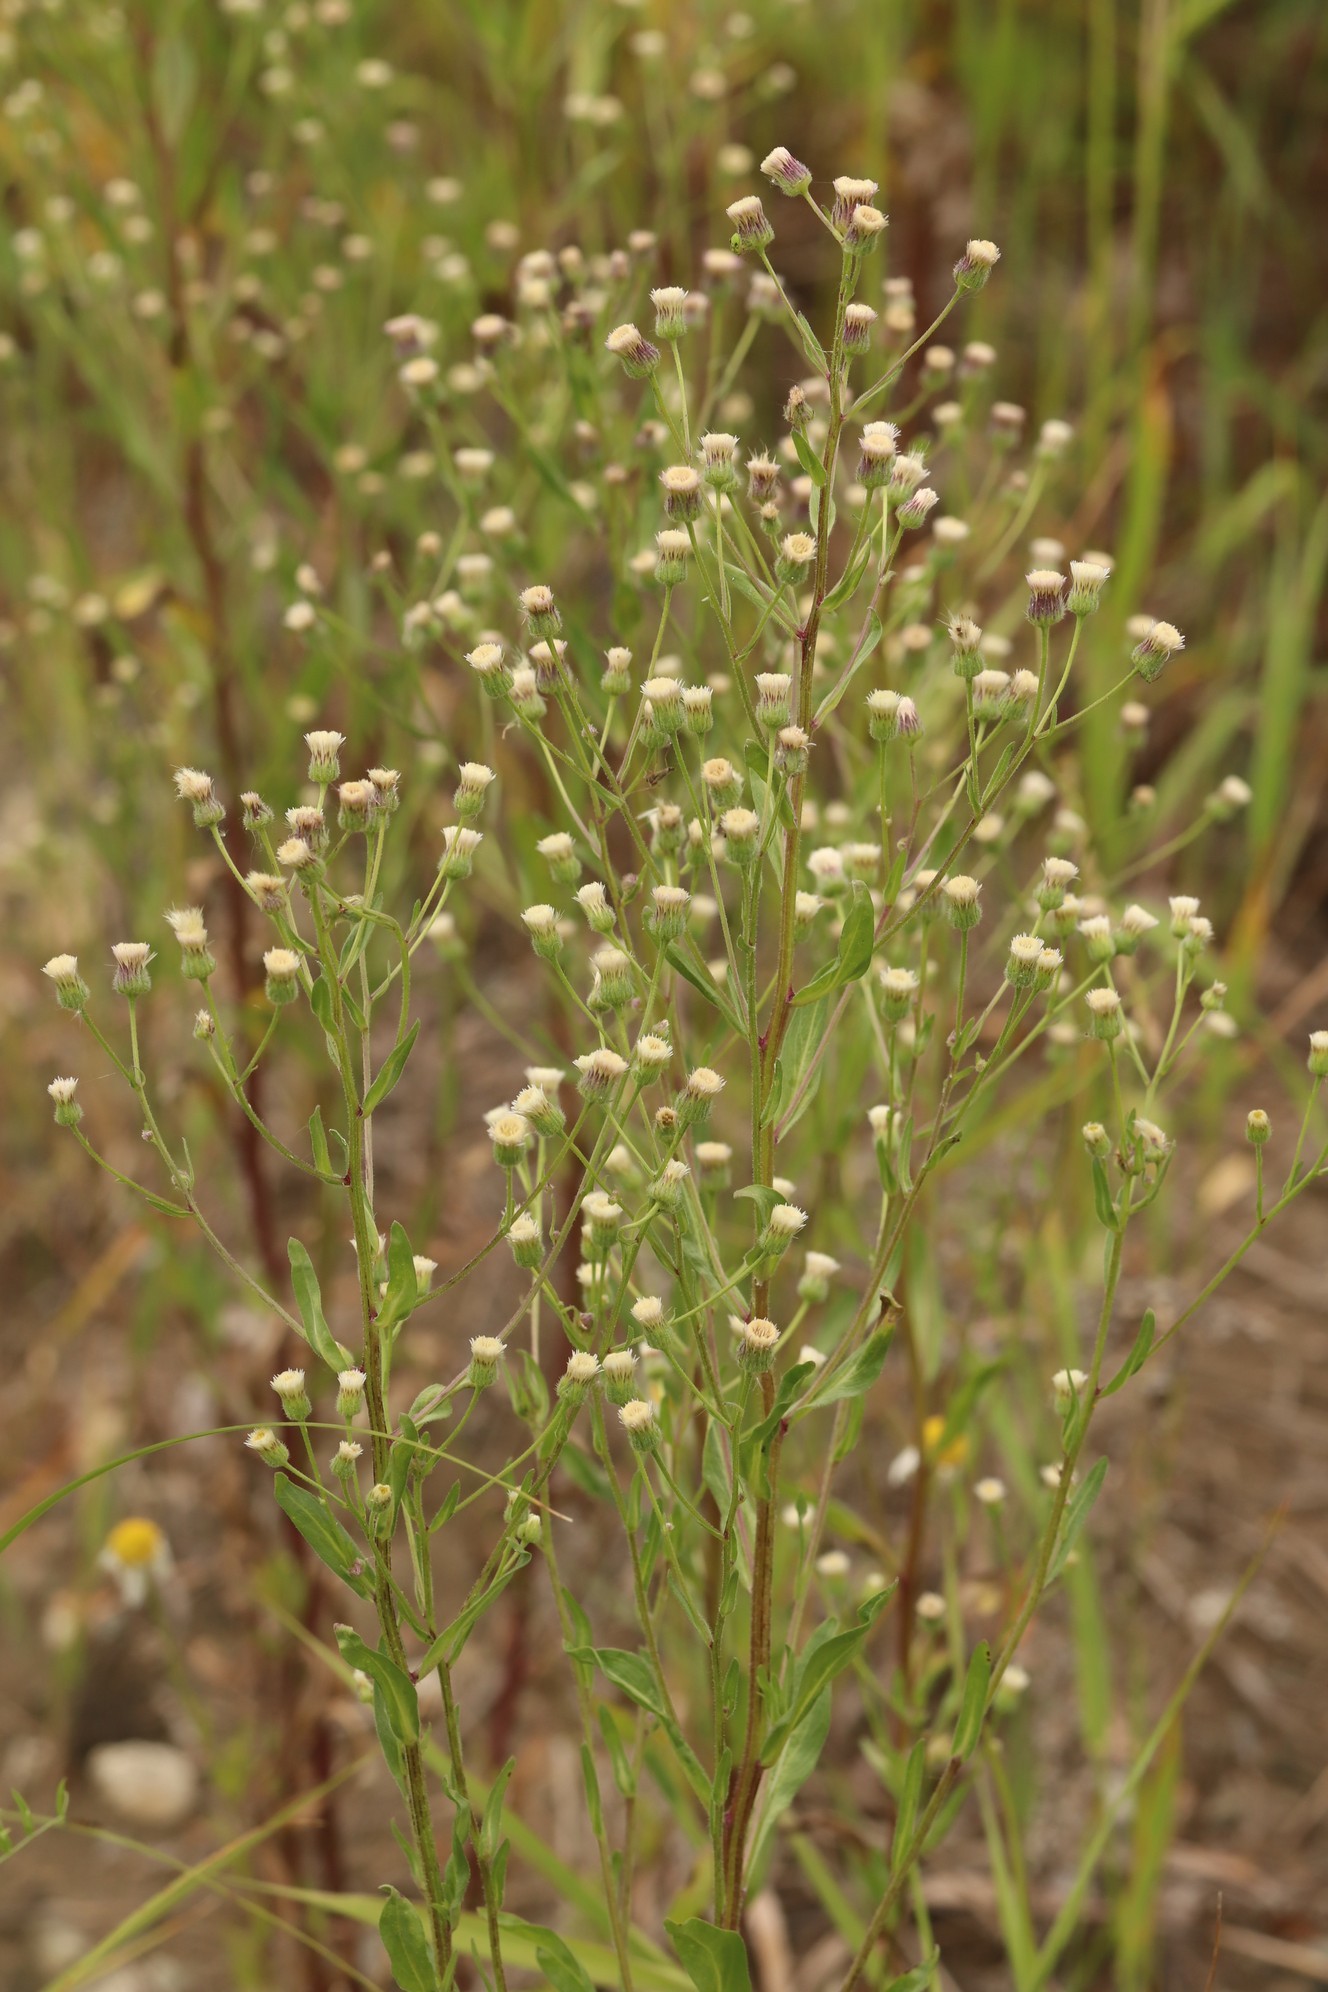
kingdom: Plantae
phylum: Tracheophyta
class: Magnoliopsida
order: Asterales
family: Asteraceae
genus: Erigeron
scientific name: Erigeron acris
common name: Blue fleabane
